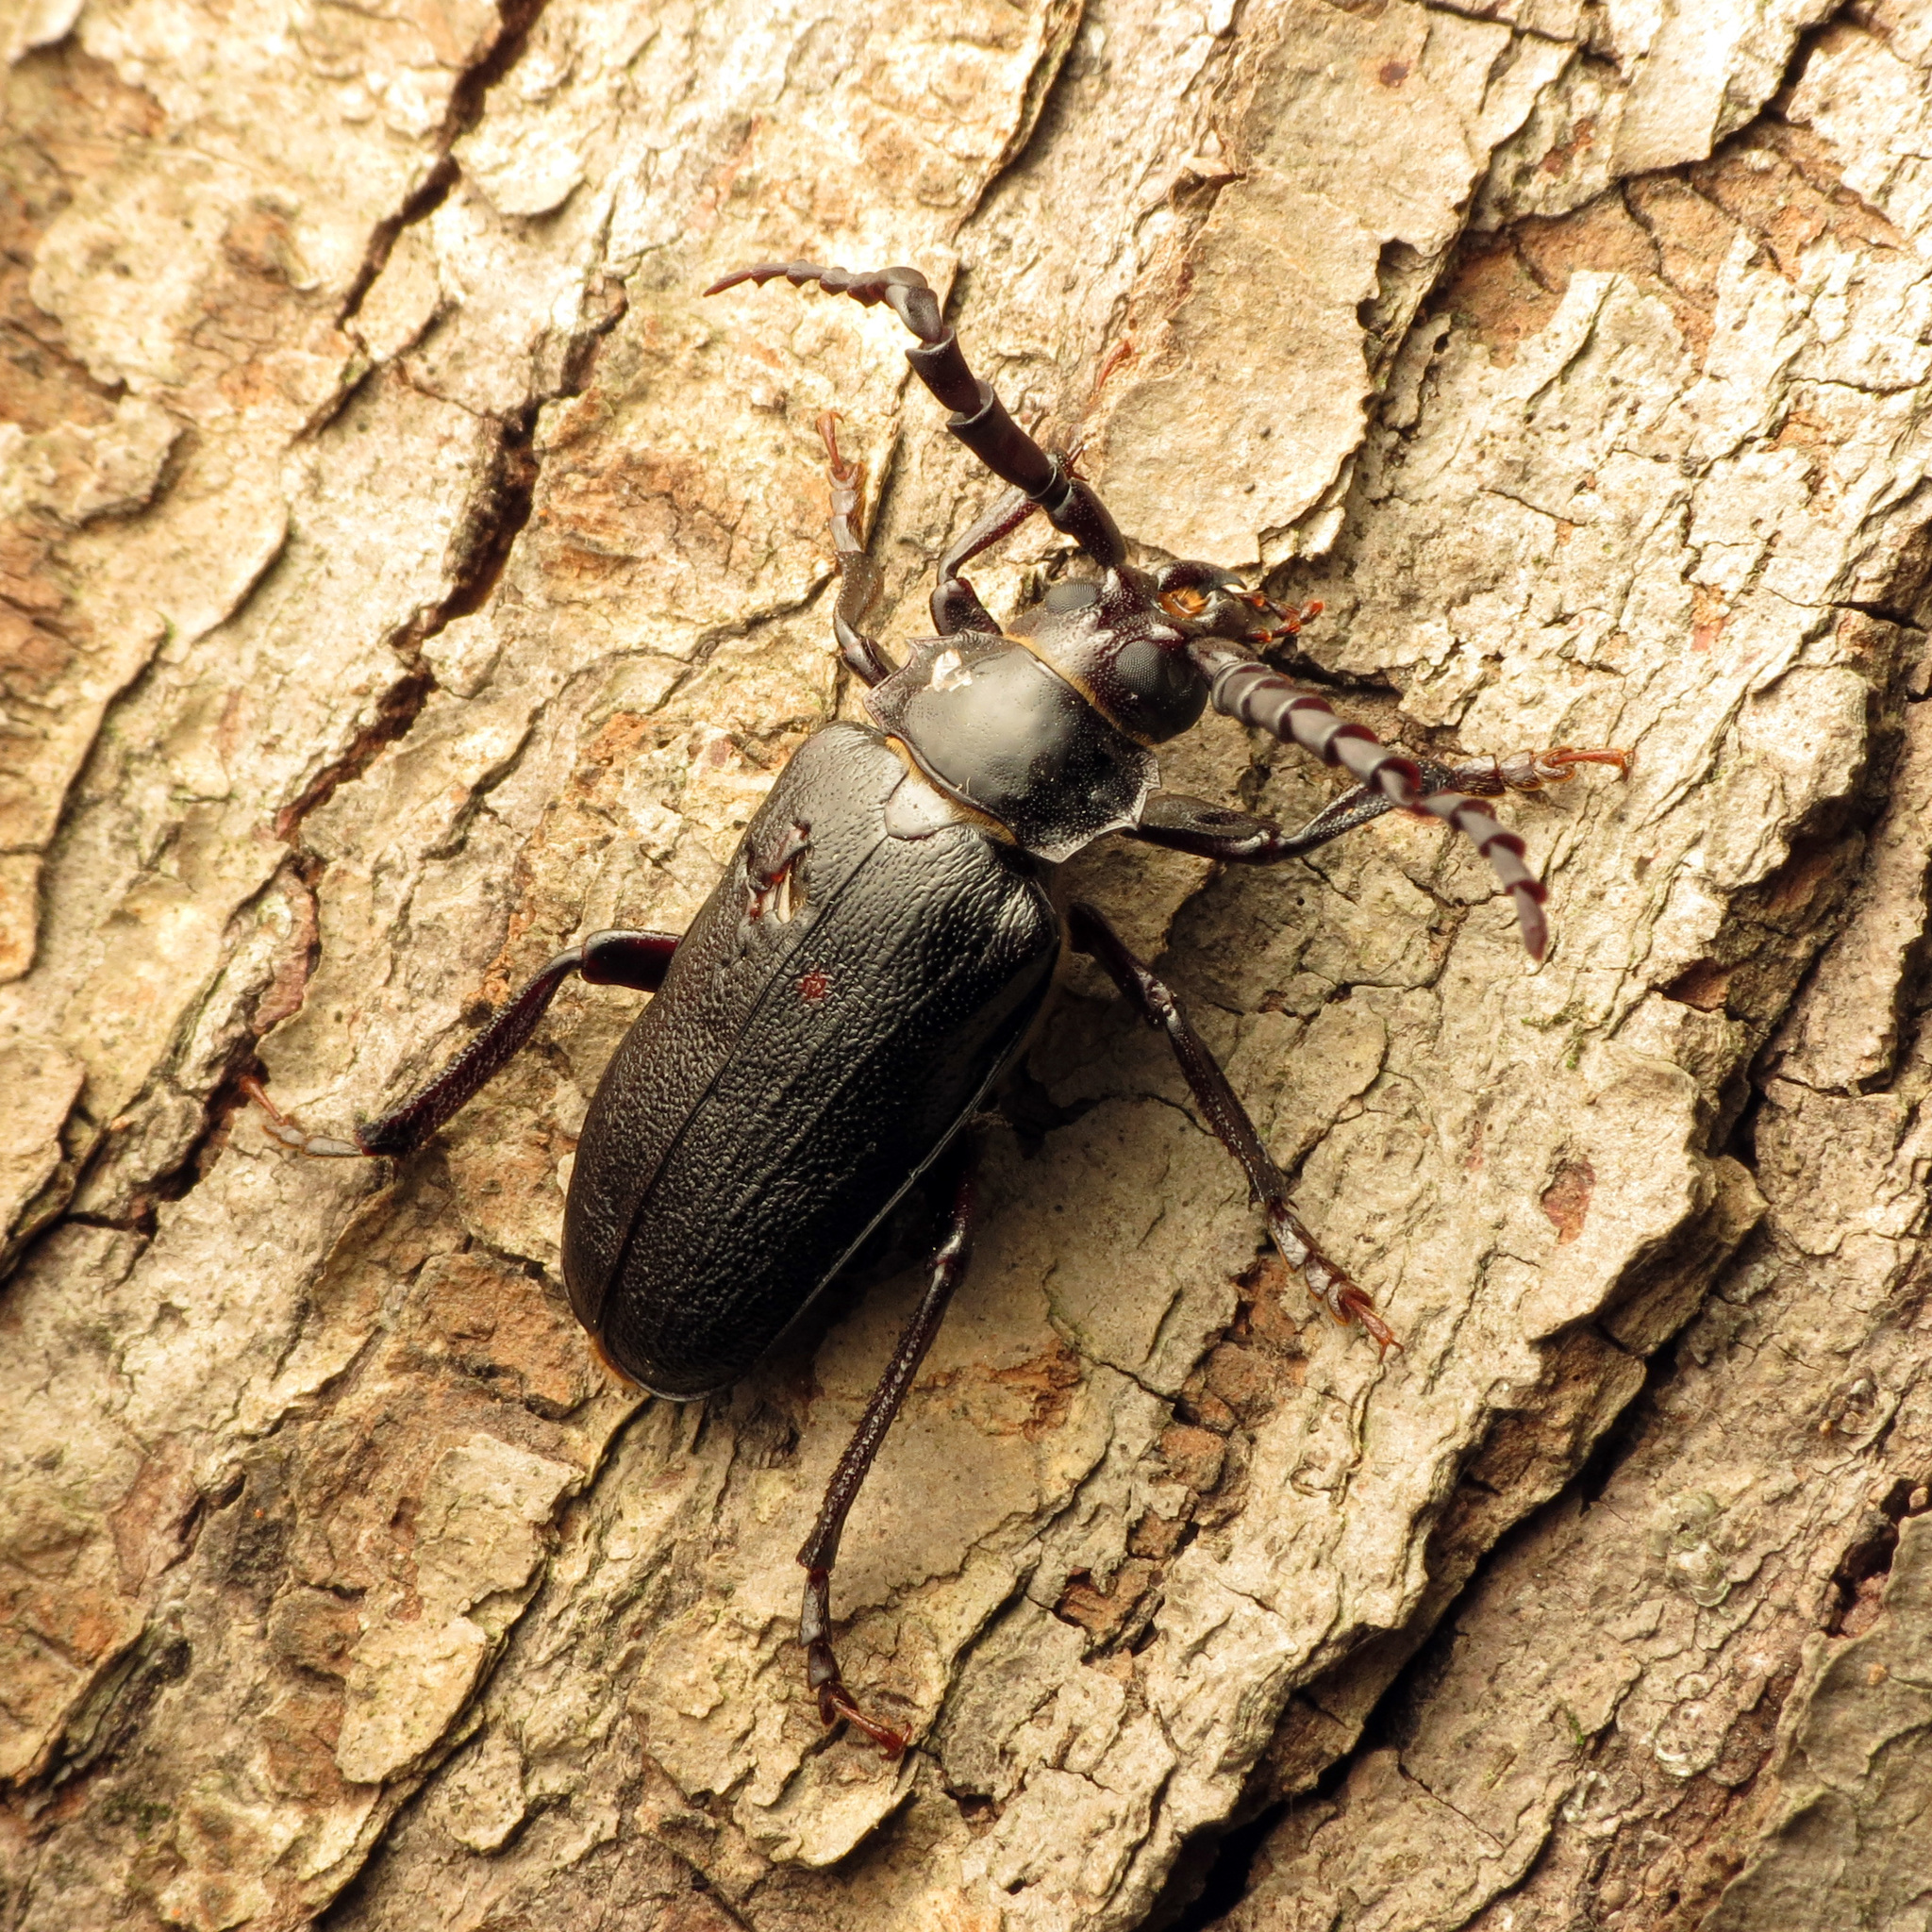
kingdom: Animalia
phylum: Arthropoda
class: Insecta
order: Coleoptera
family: Cerambycidae
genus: Prionus
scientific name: Prionus laticollis
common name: Broad necked prionus
